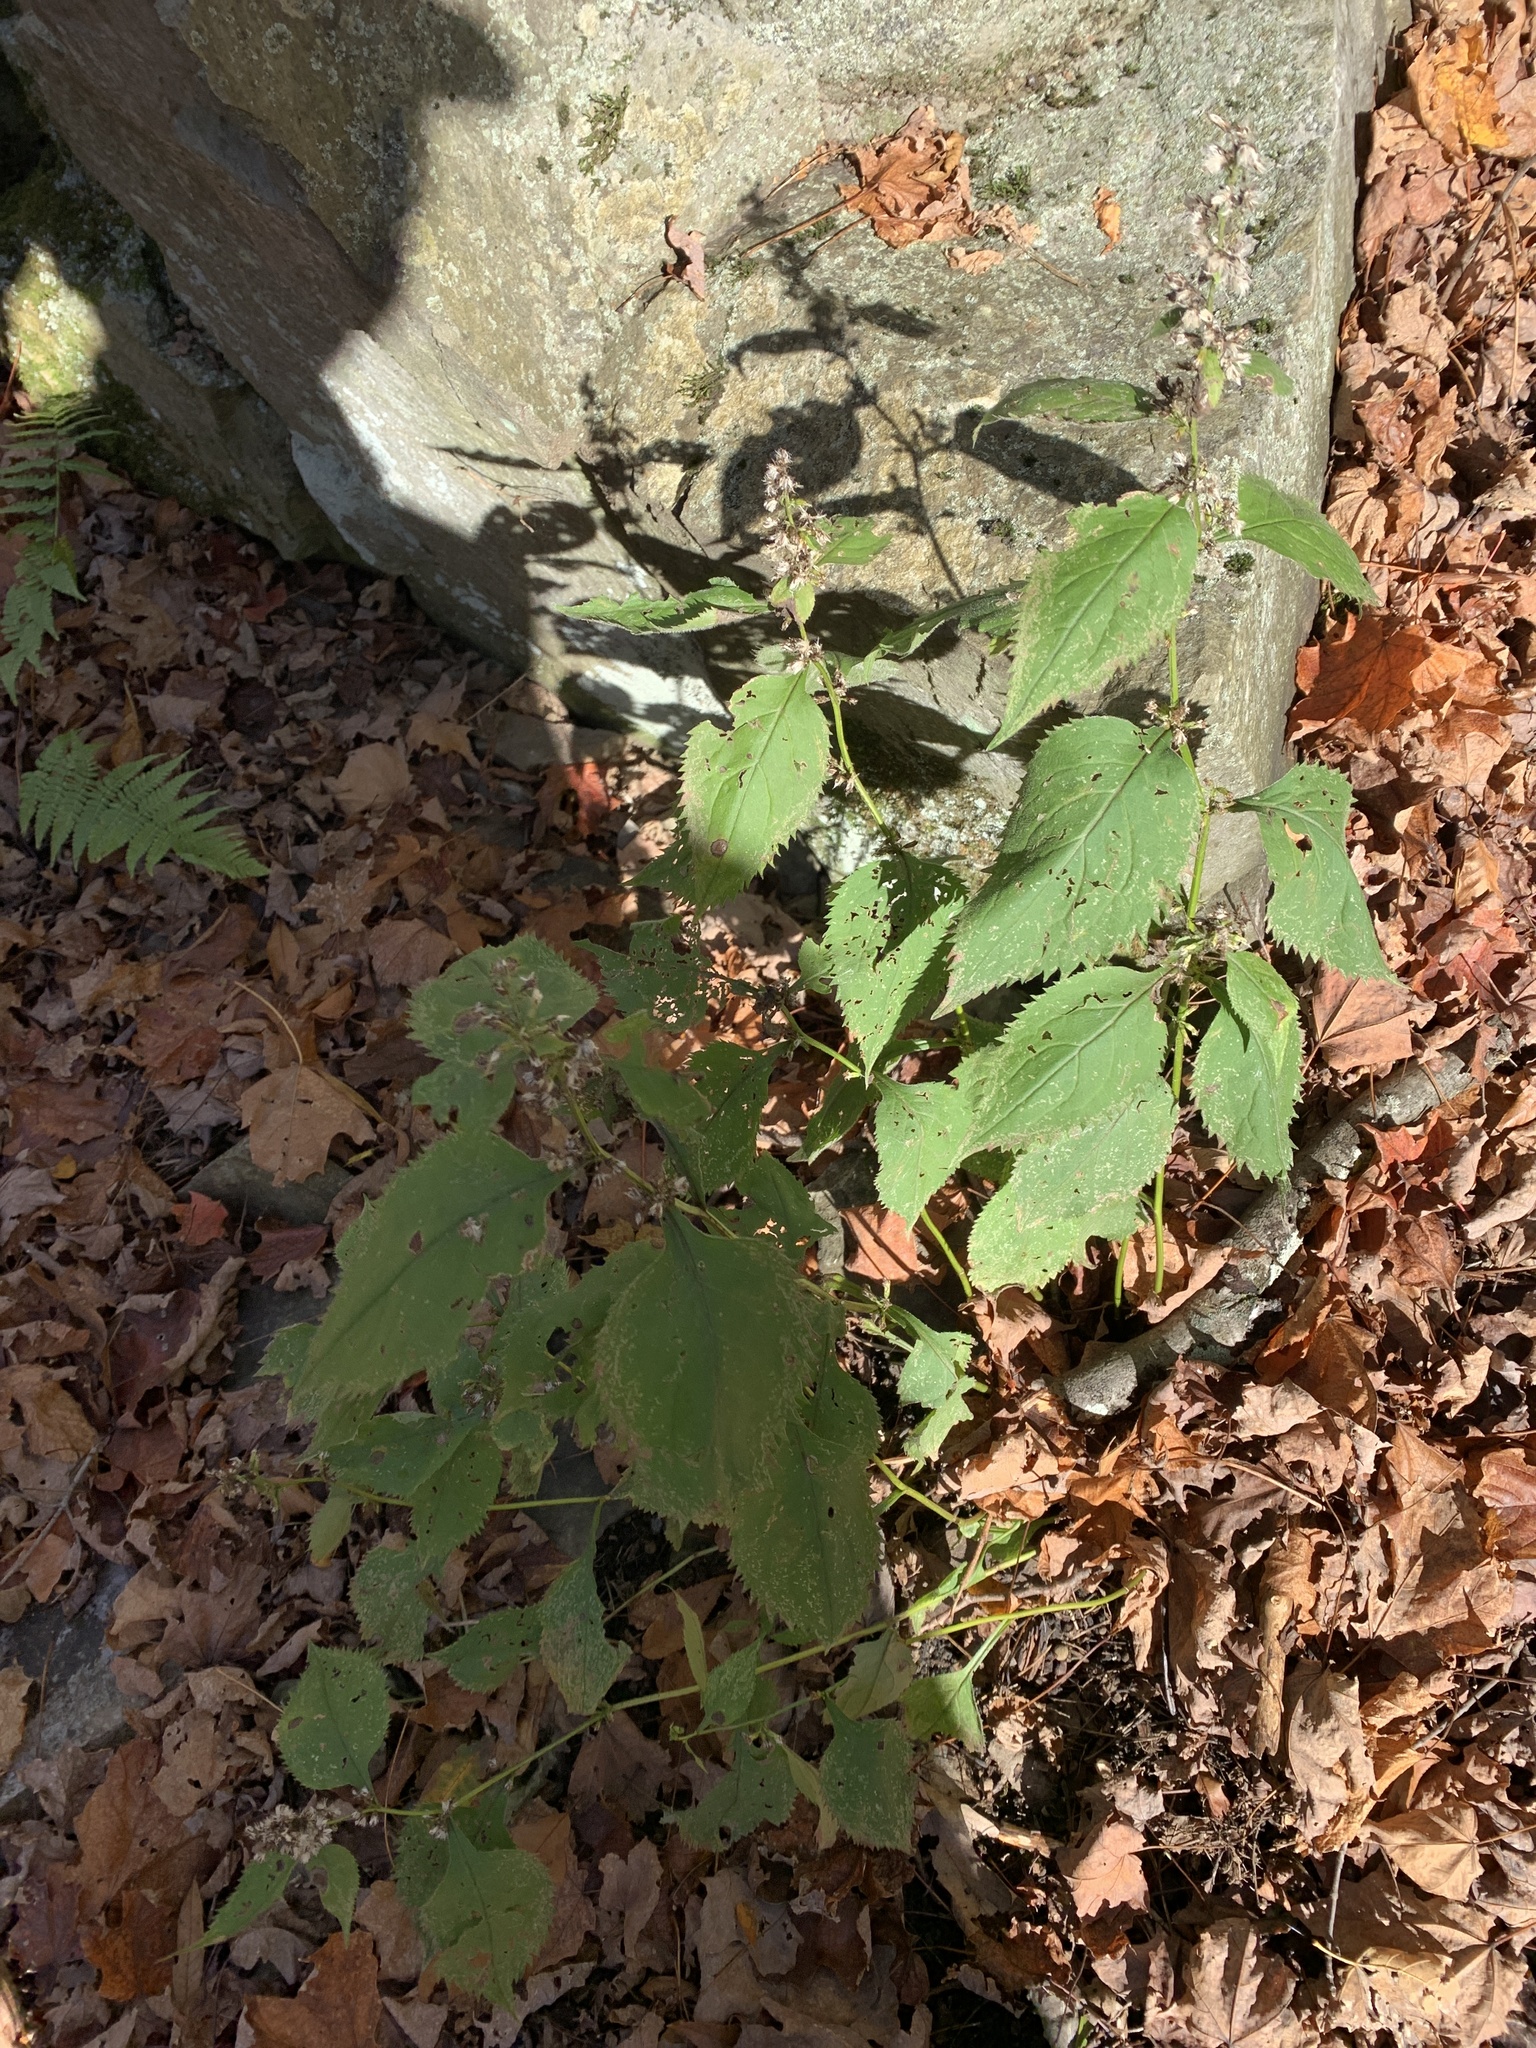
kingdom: Plantae
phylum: Tracheophyta
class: Magnoliopsida
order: Asterales
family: Asteraceae
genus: Solidago
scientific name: Solidago flexicaulis
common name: Zig-zag goldenrod
